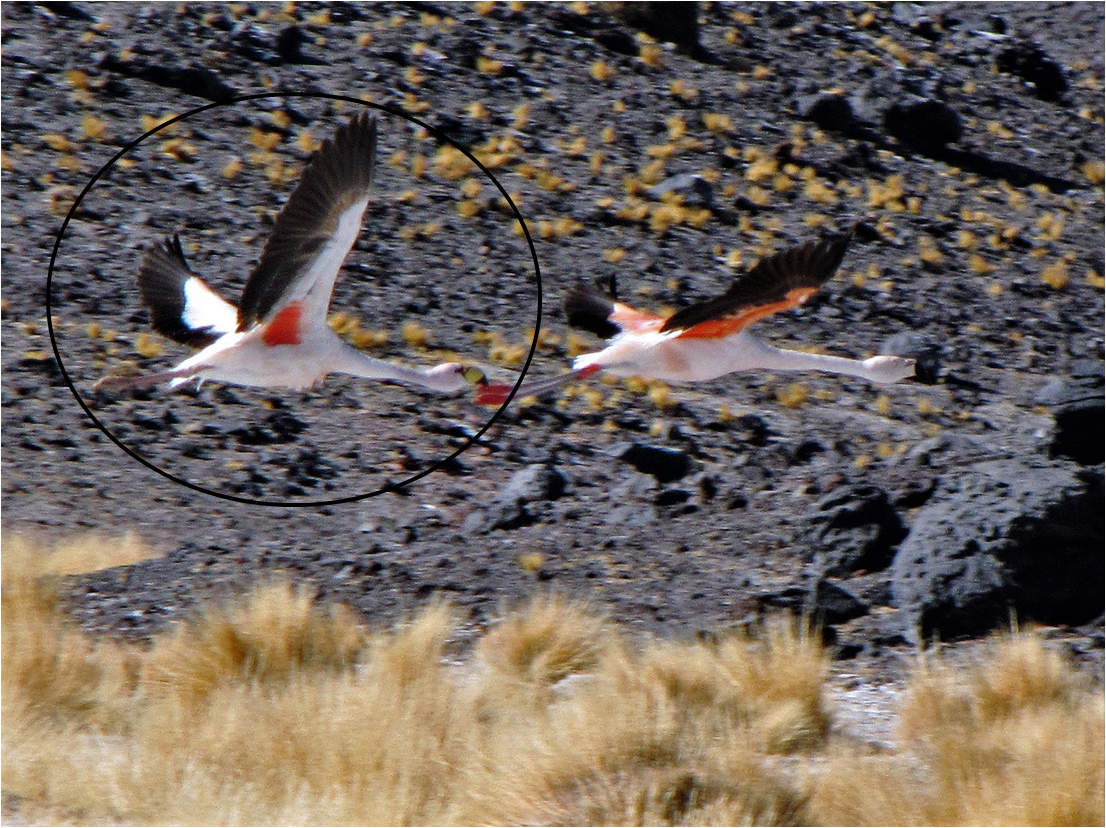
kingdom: Animalia
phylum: Chordata
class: Aves
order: Phoenicopteriformes
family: Phoenicopteridae
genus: Phoenicoparrus
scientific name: Phoenicoparrus jamesi
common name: James's flamingo
